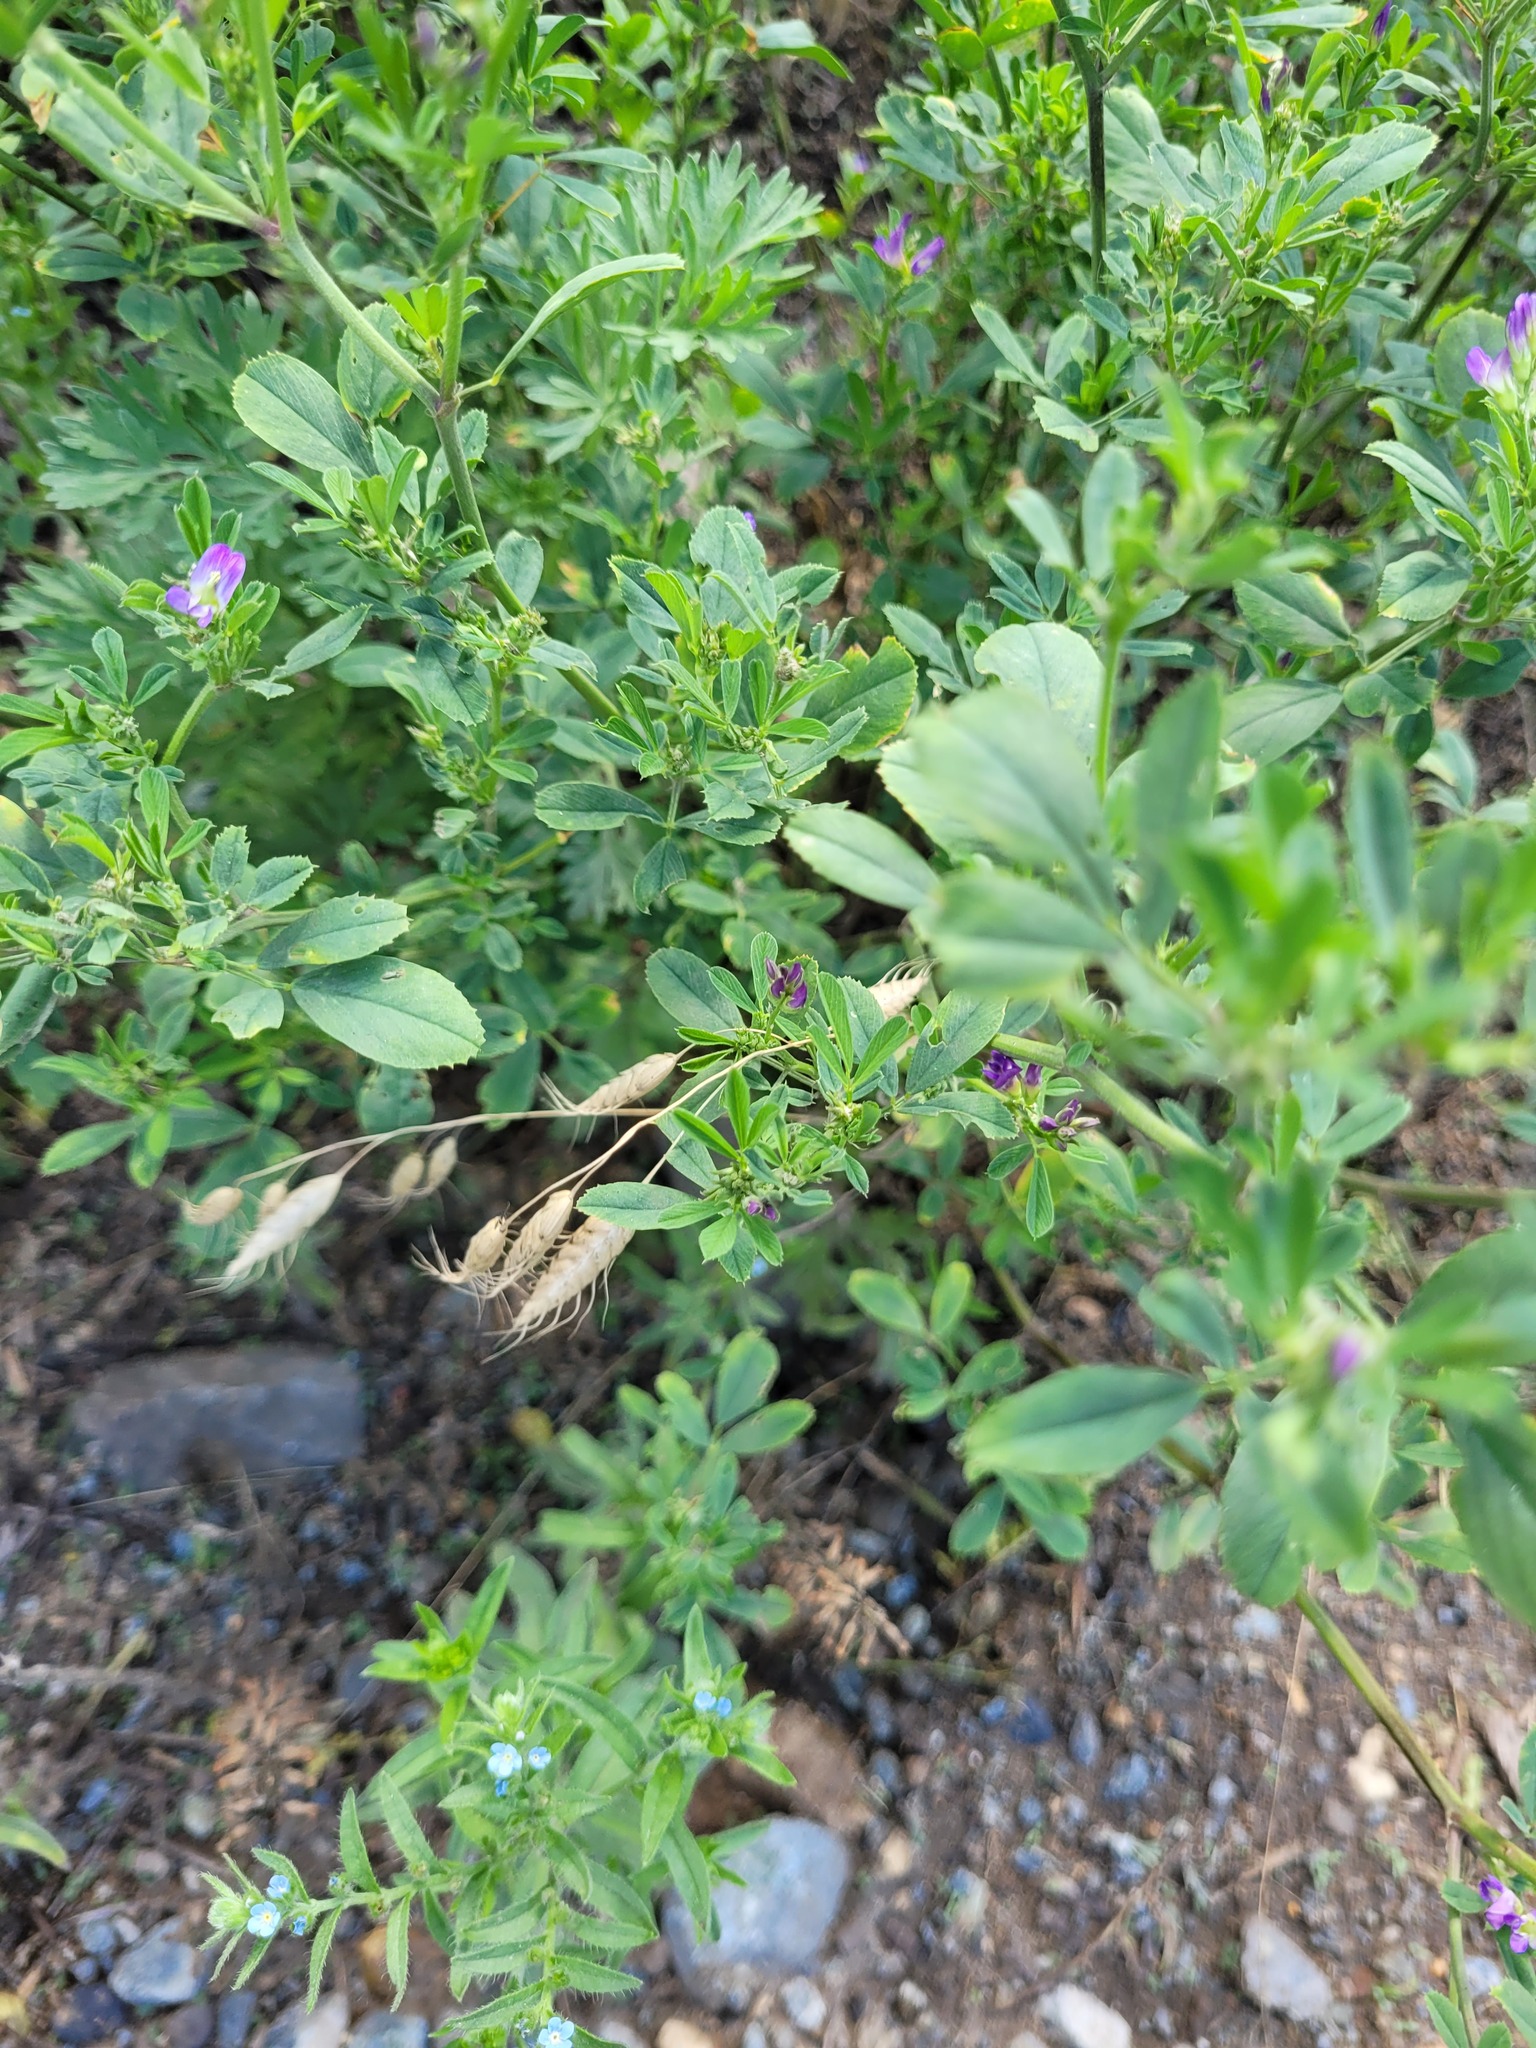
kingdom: Plantae
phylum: Tracheophyta
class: Liliopsida
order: Poales
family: Poaceae
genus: Bromus
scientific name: Bromus squarrosus
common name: Corn brome
